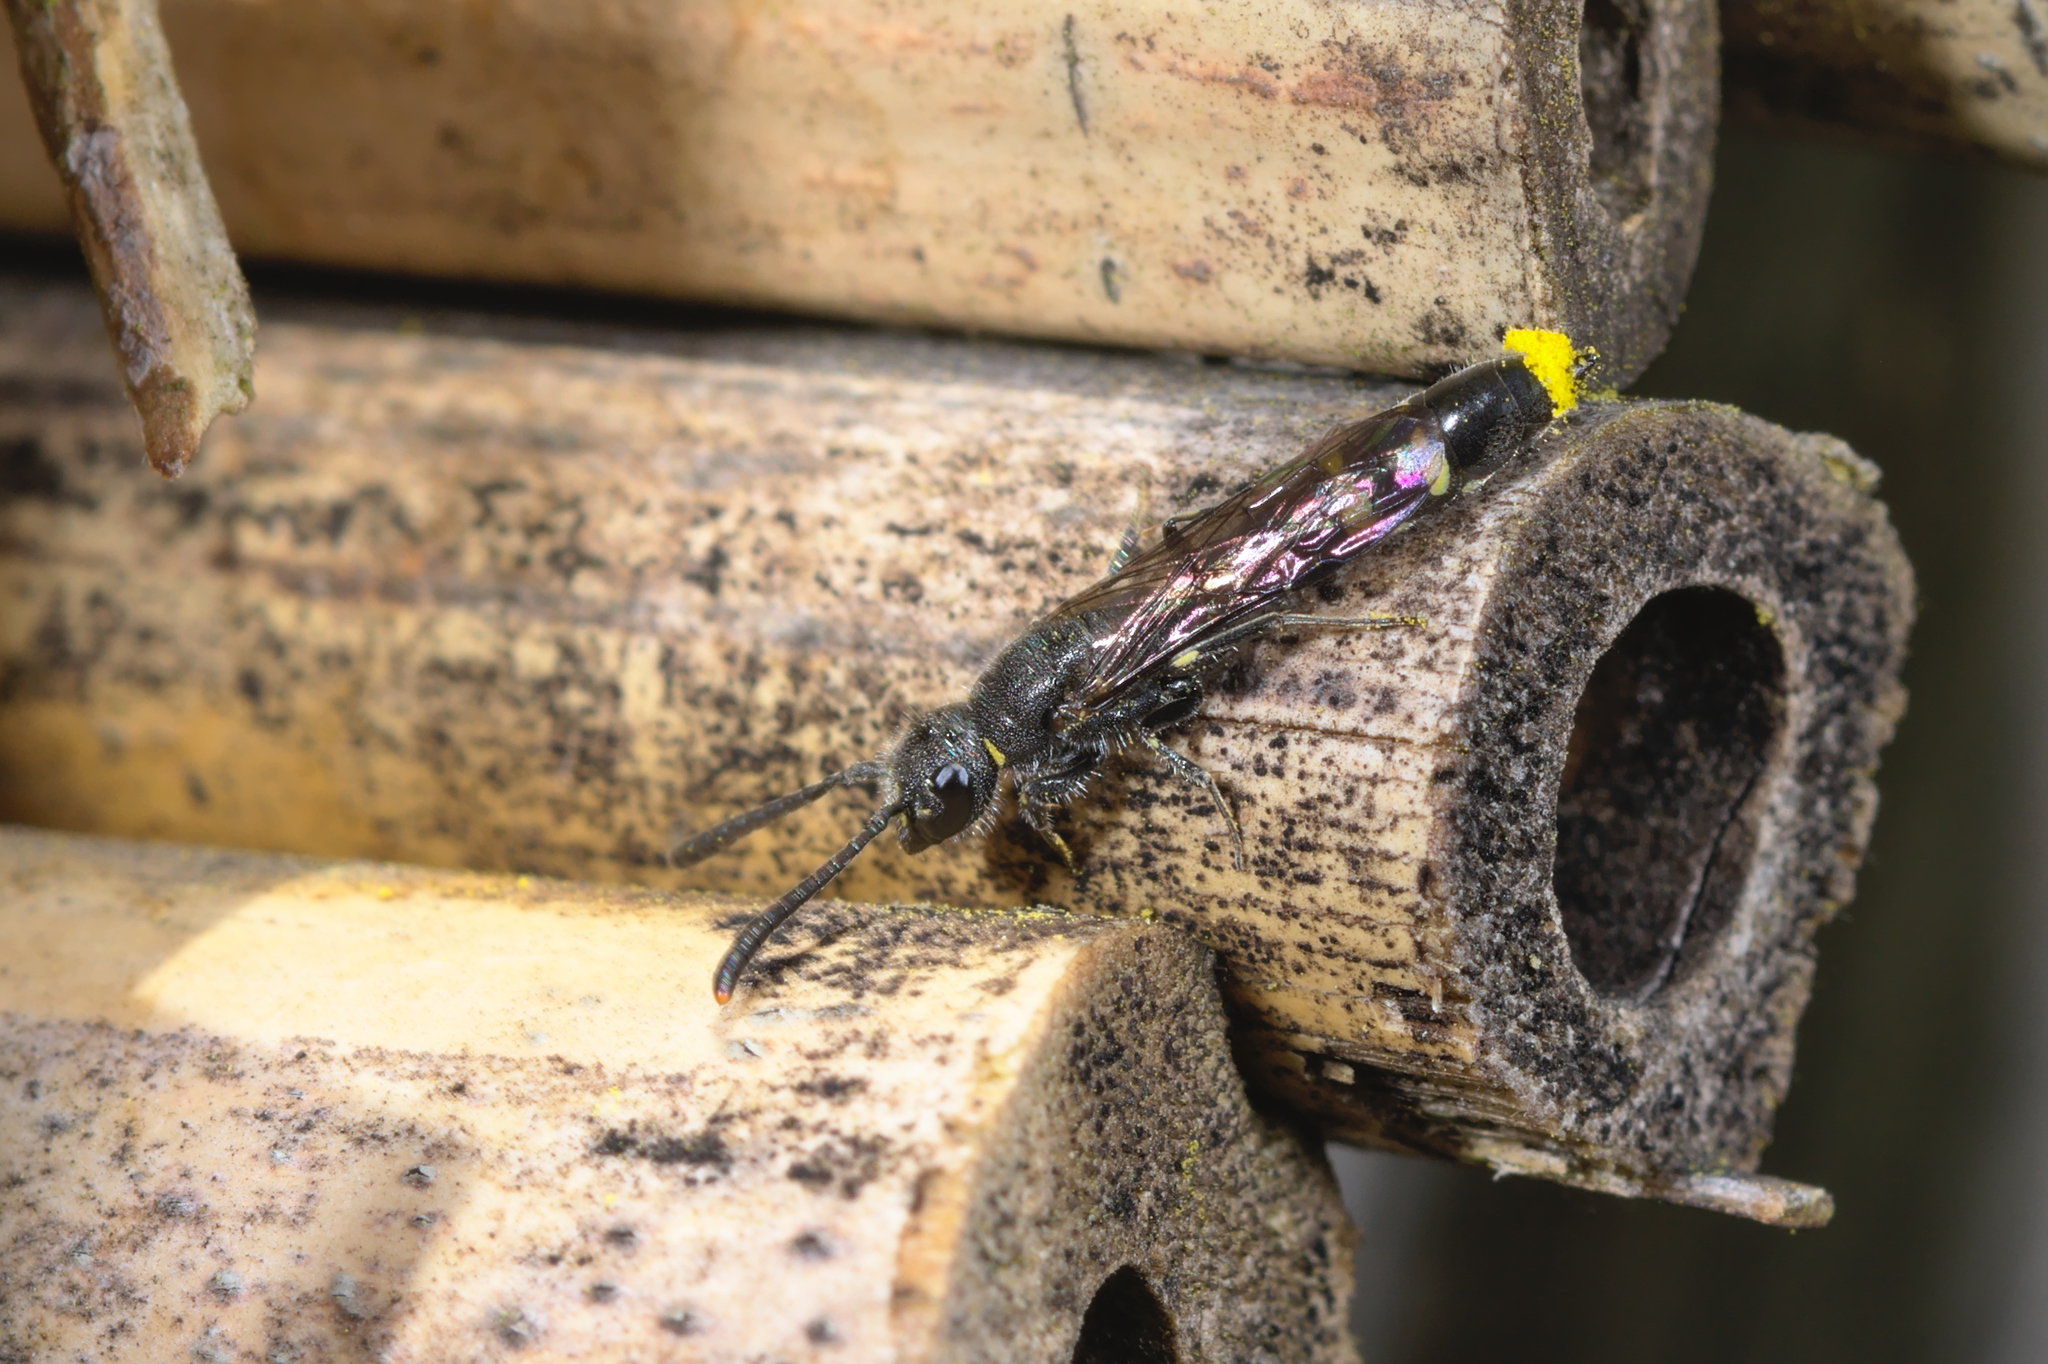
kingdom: Animalia
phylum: Arthropoda
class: Insecta
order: Hymenoptera
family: Sapygidae
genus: Monosapyga
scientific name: Monosapyga clavicornis
